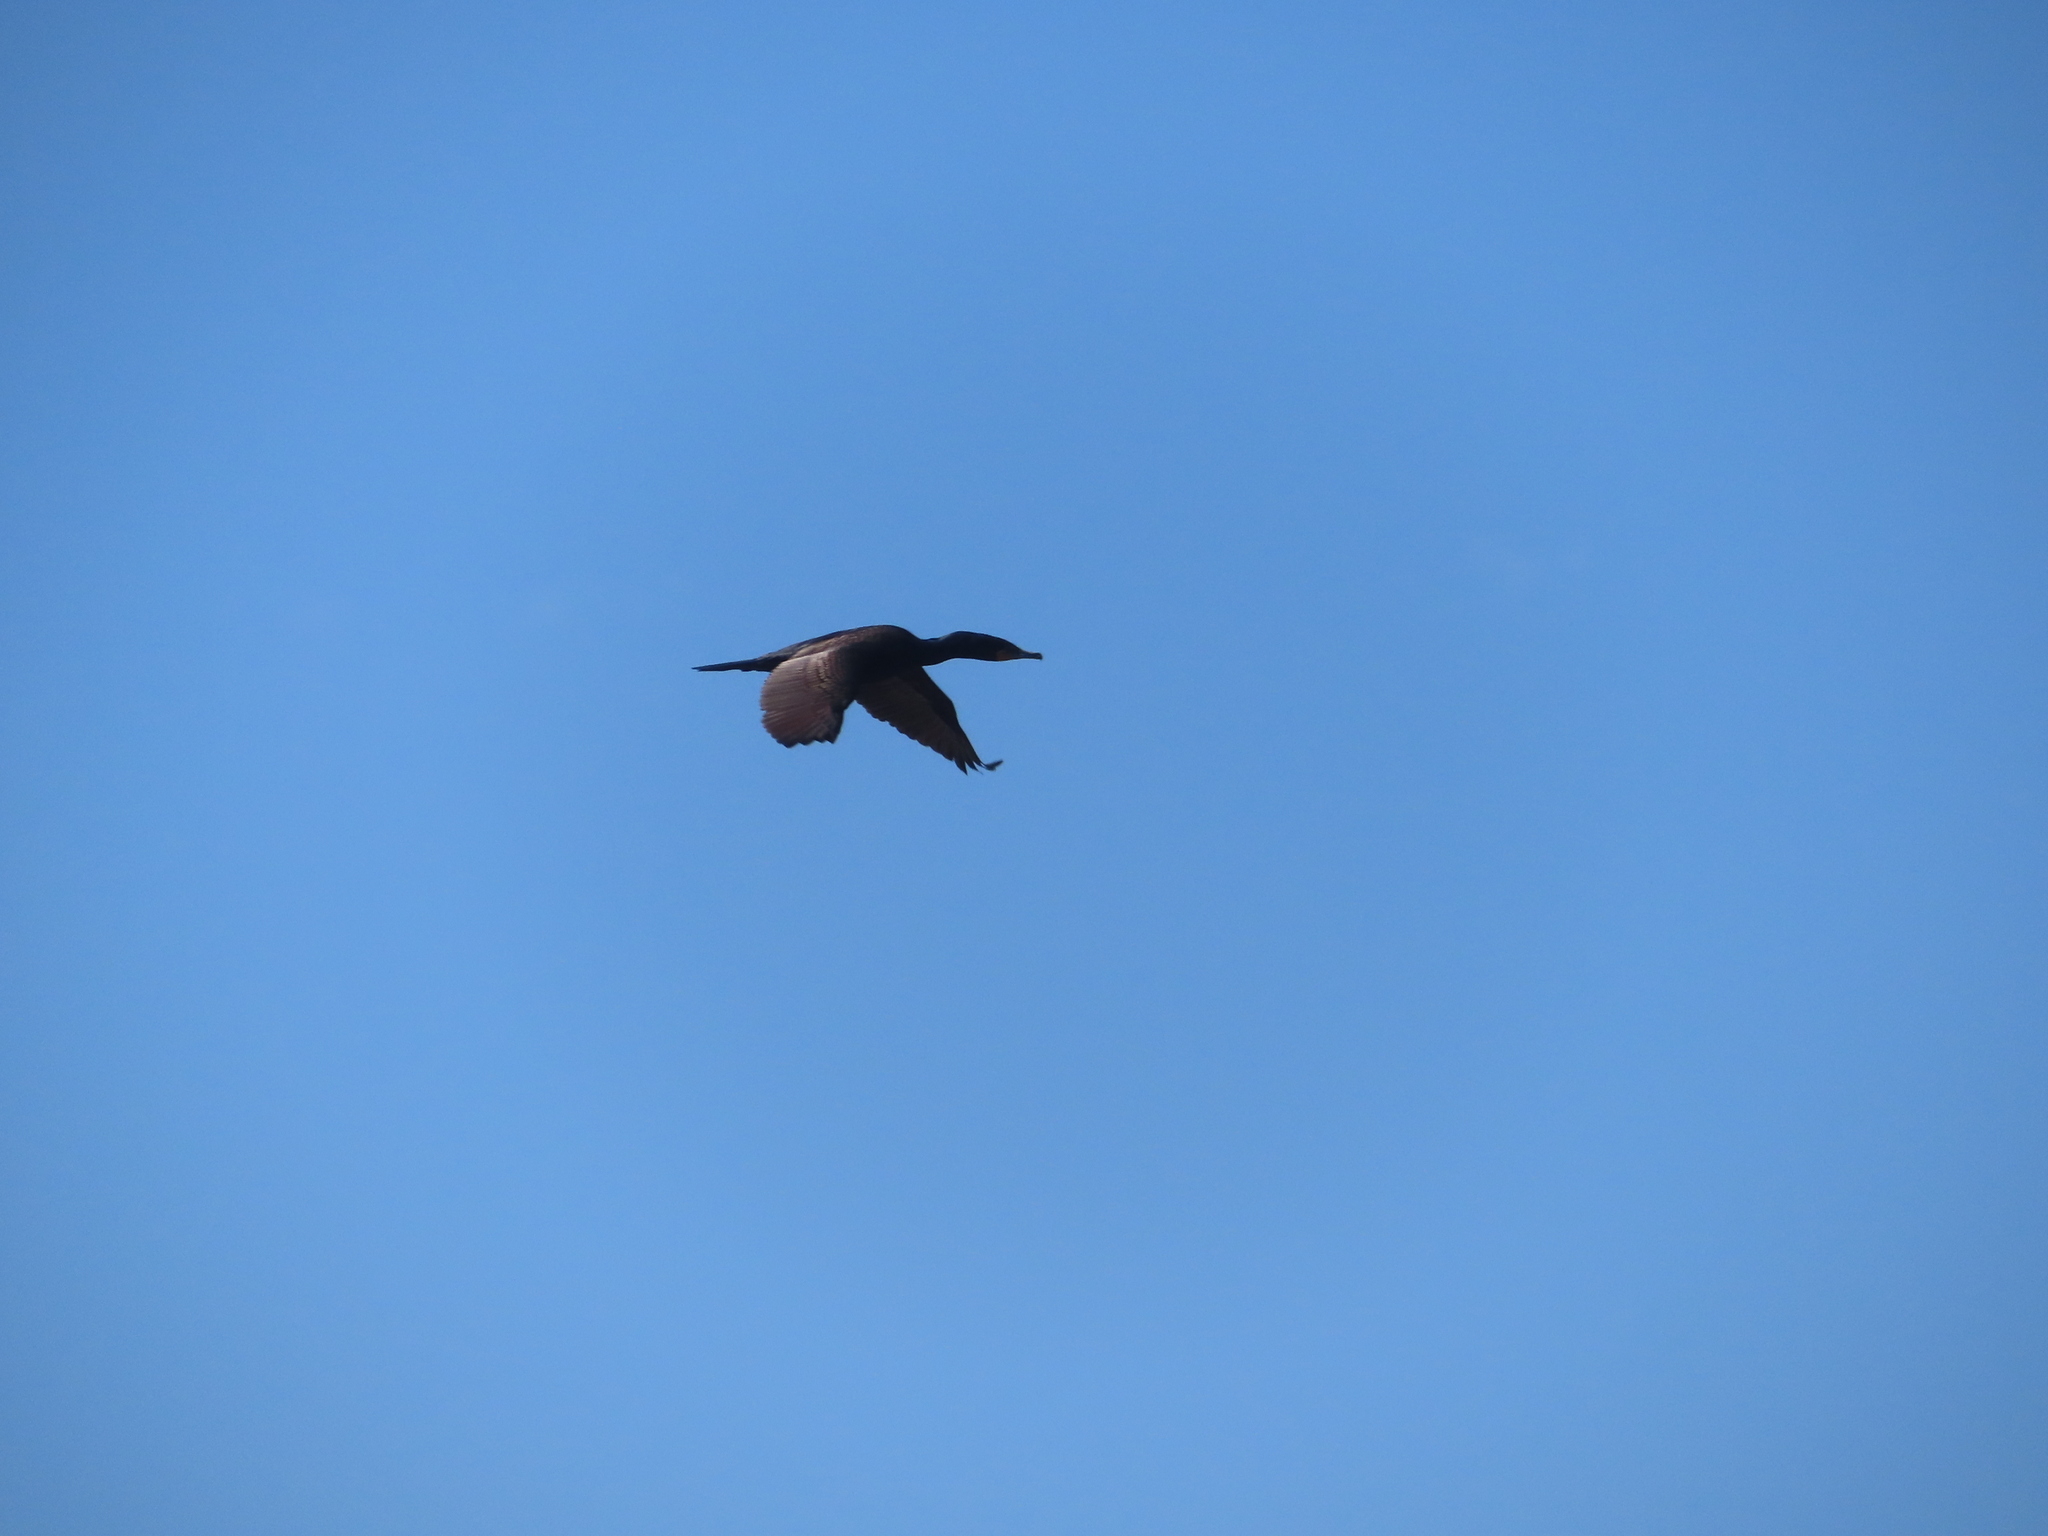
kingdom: Animalia
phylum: Chordata
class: Aves
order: Suliformes
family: Phalacrocoracidae
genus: Phalacrocorax
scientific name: Phalacrocorax auritus
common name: Double-crested cormorant
